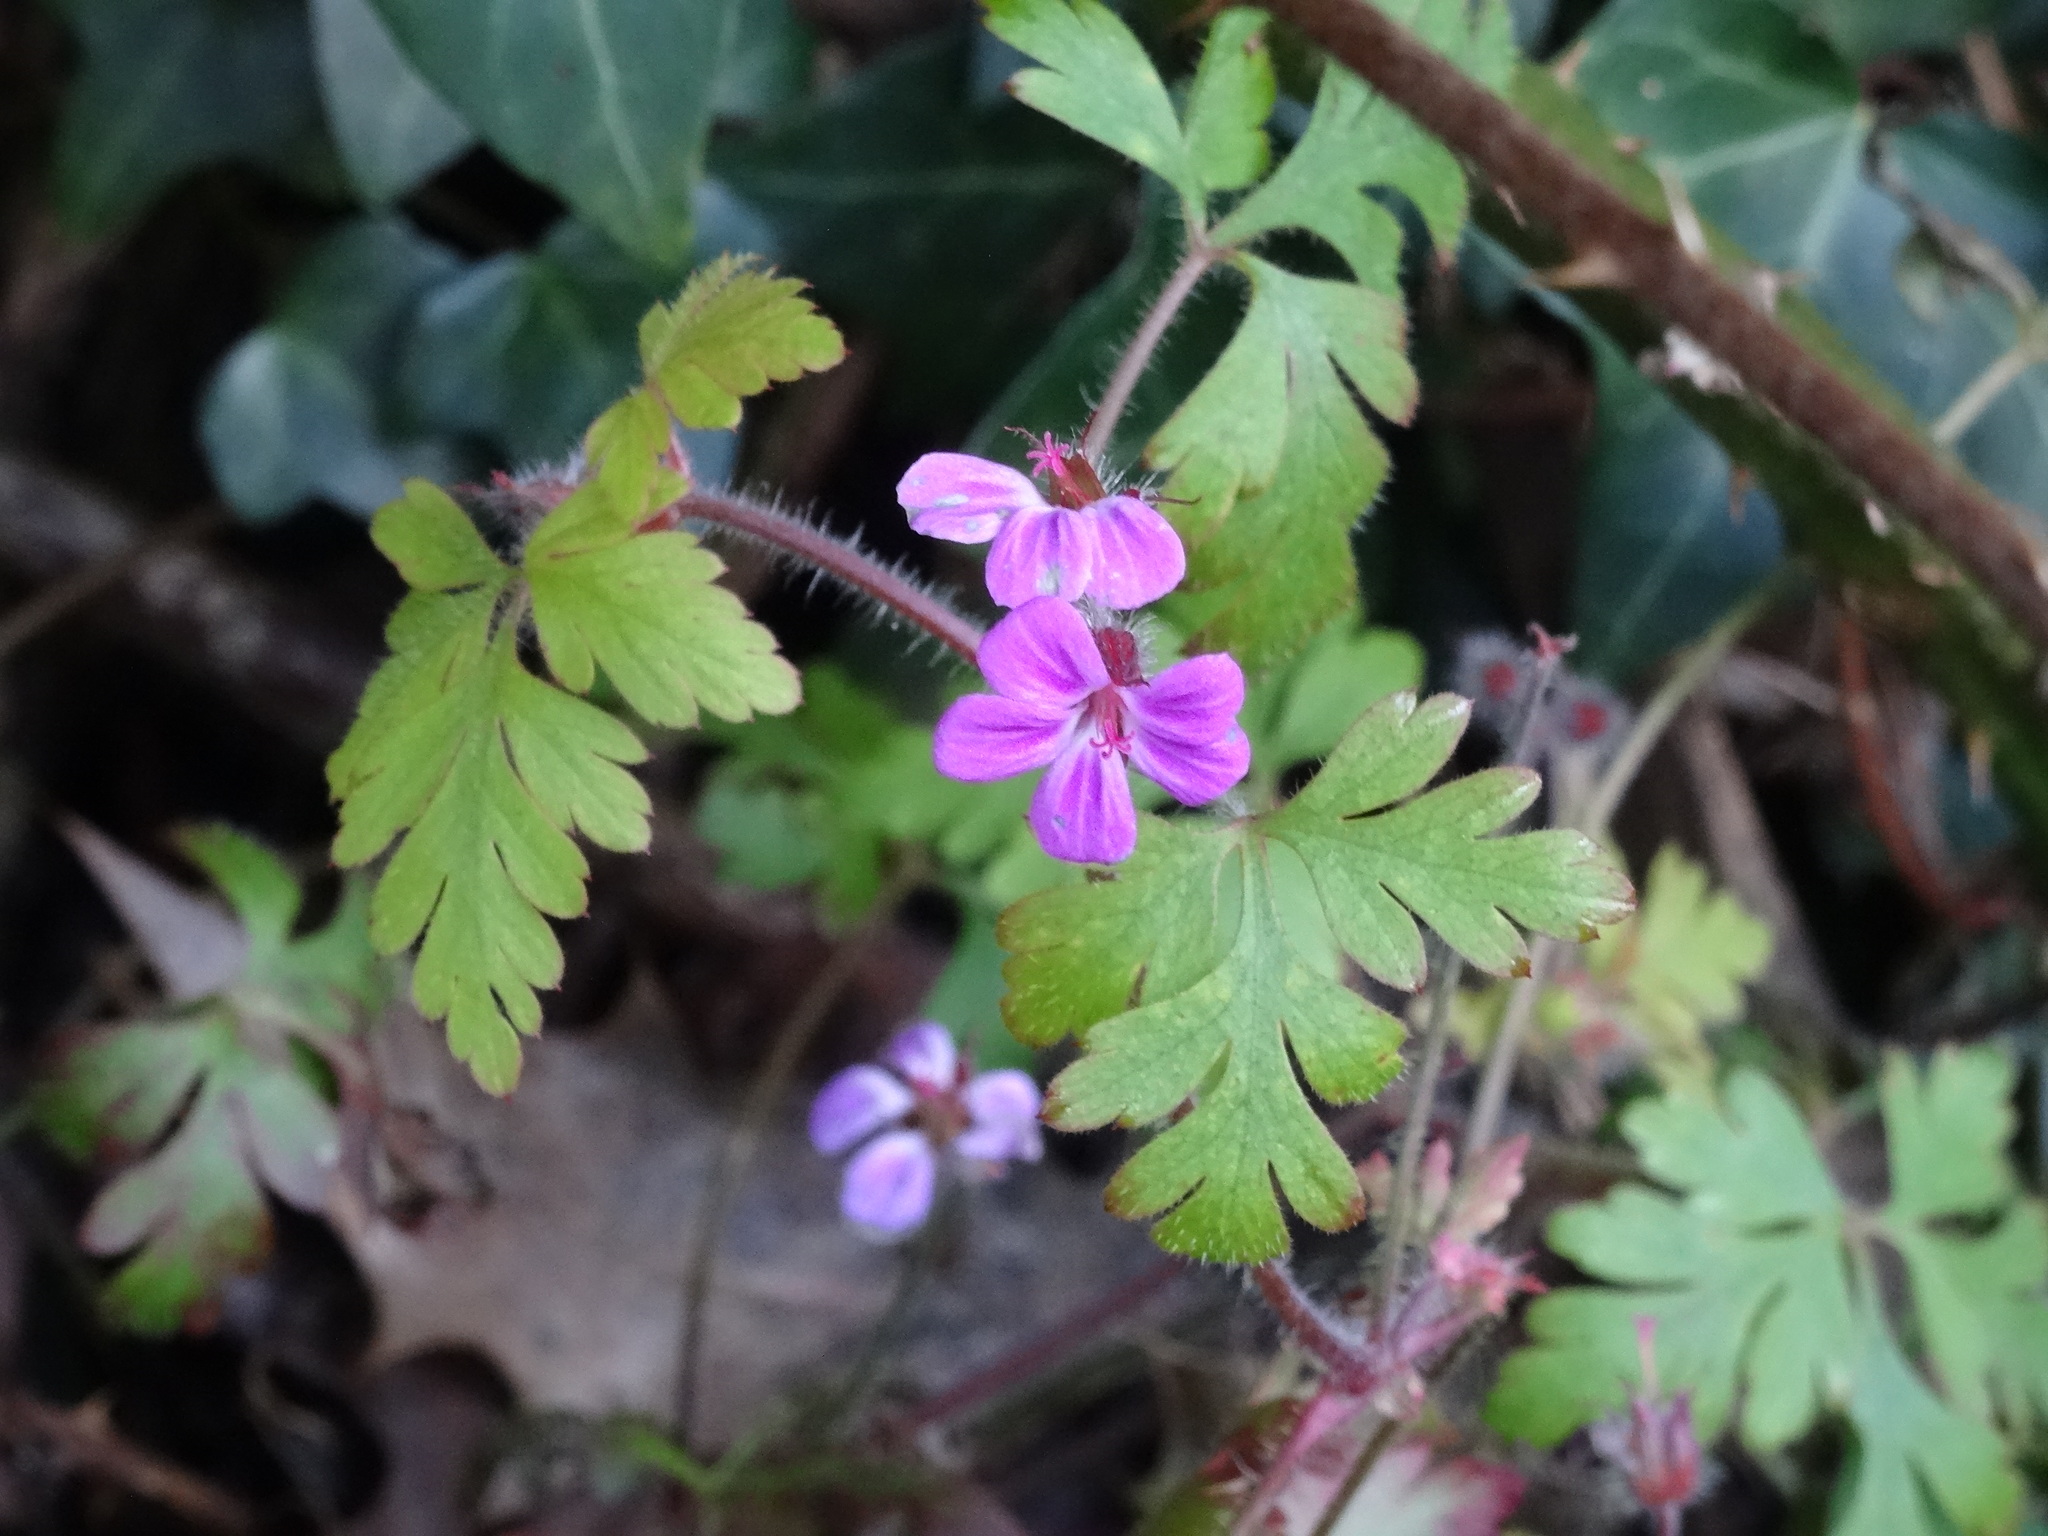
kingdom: Plantae
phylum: Tracheophyta
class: Magnoliopsida
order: Geraniales
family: Geraniaceae
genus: Geranium
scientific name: Geranium robertianum
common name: Herb-robert
